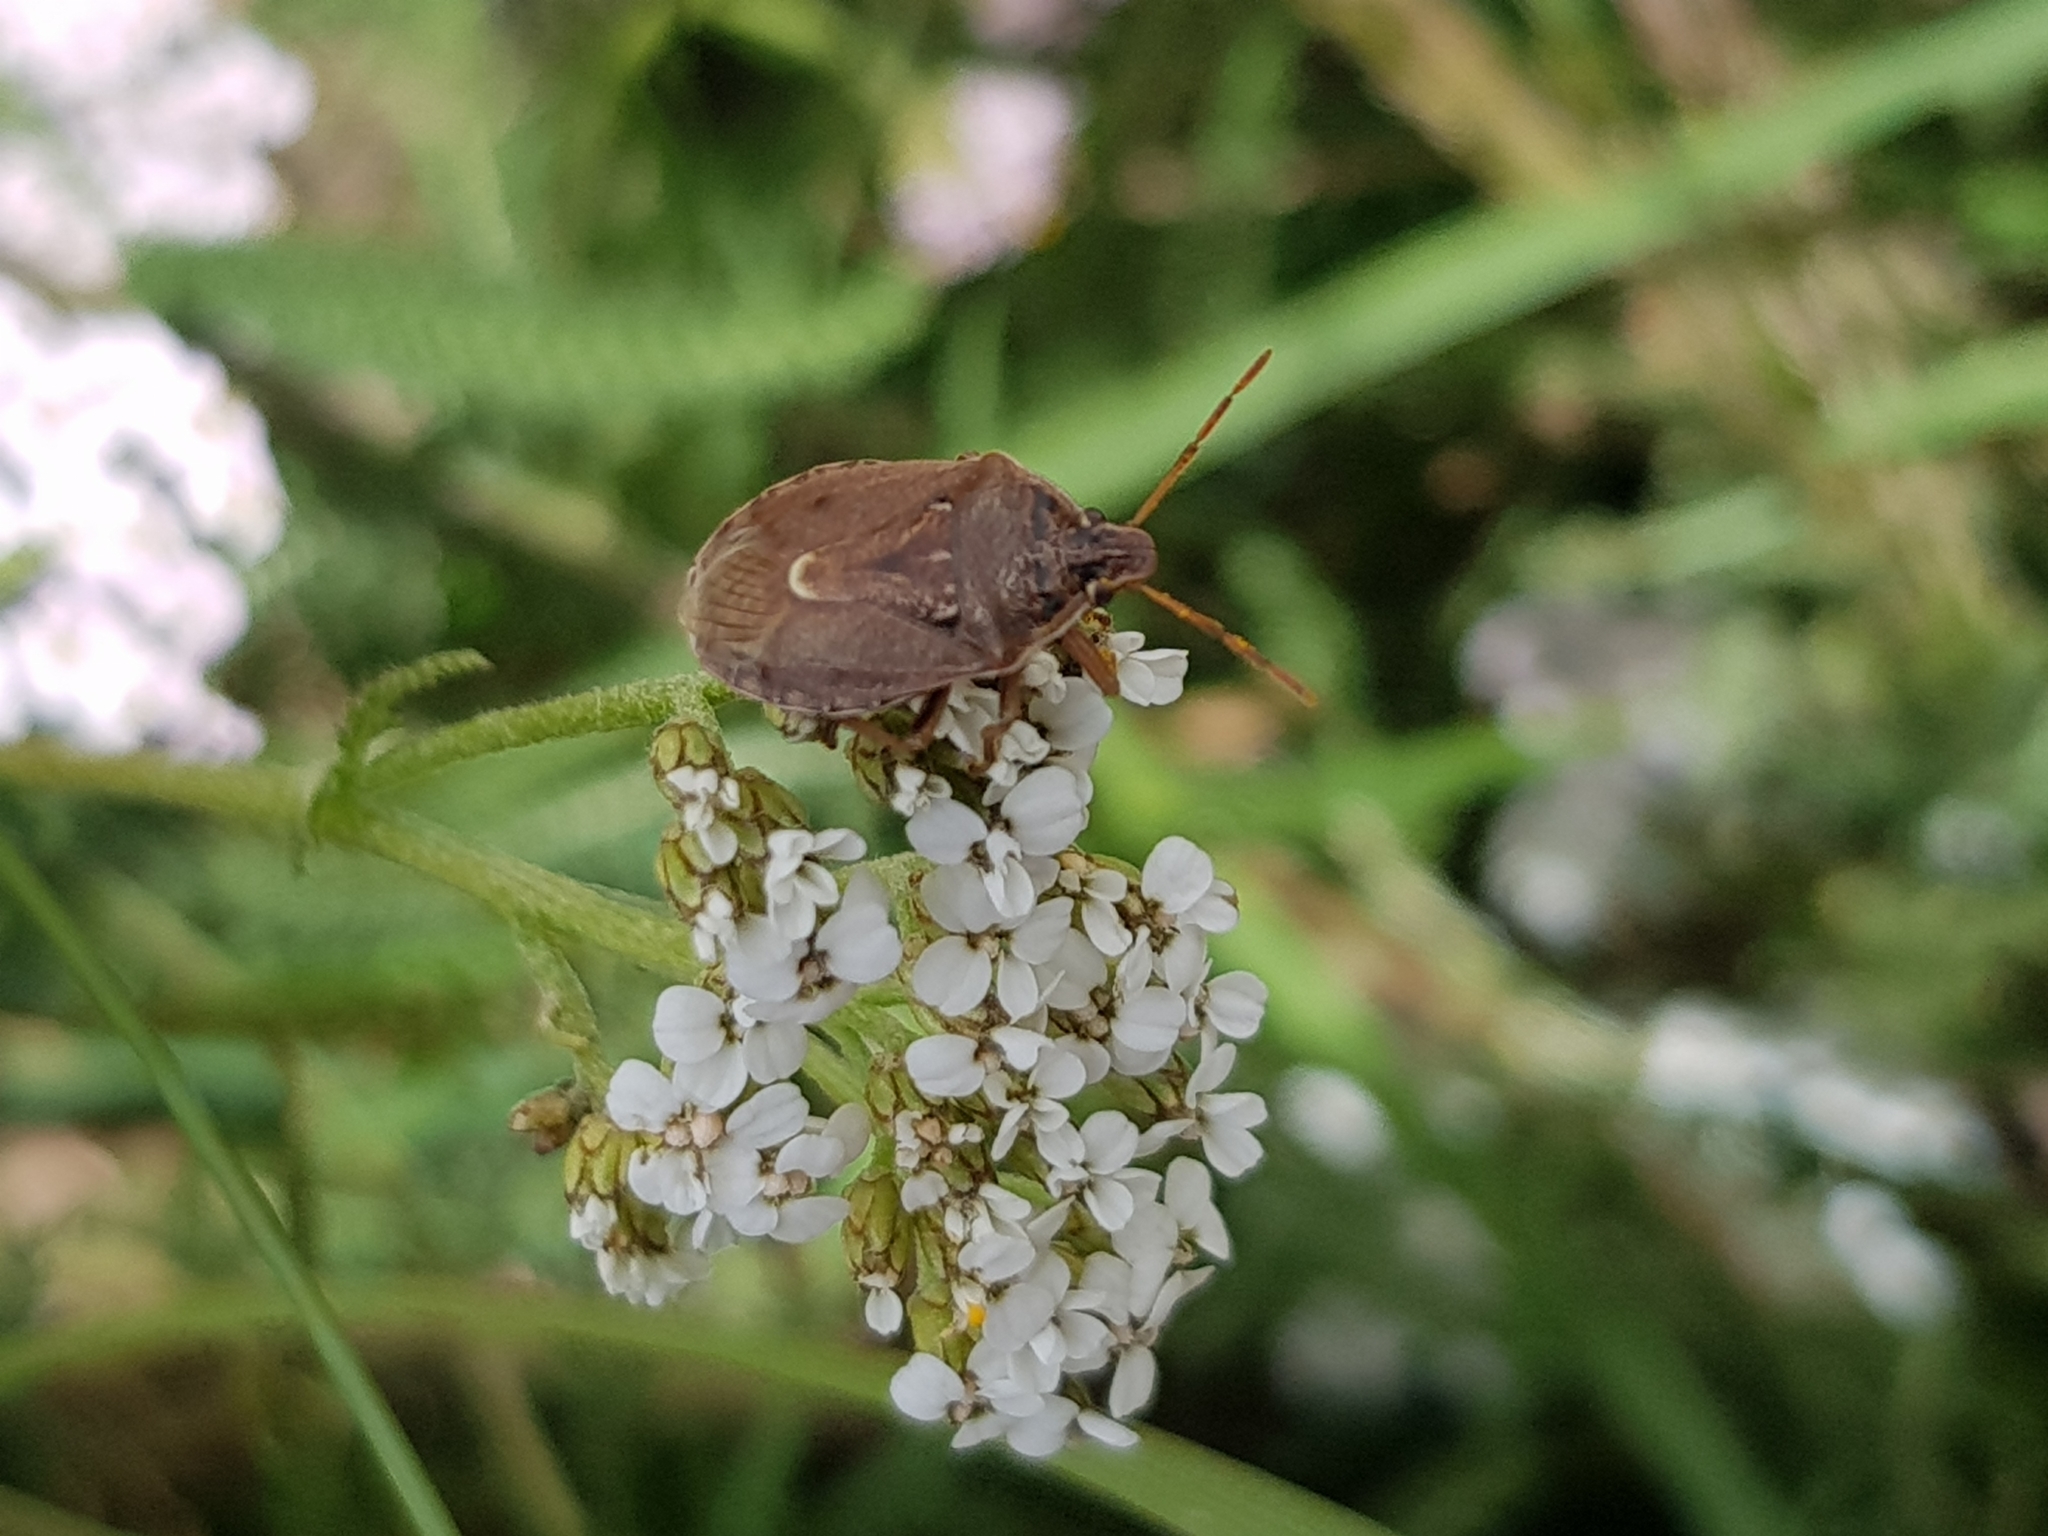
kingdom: Animalia
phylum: Arthropoda
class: Insecta
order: Hemiptera
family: Pentatomidae
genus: Cermatulus
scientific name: Cermatulus nasalis
